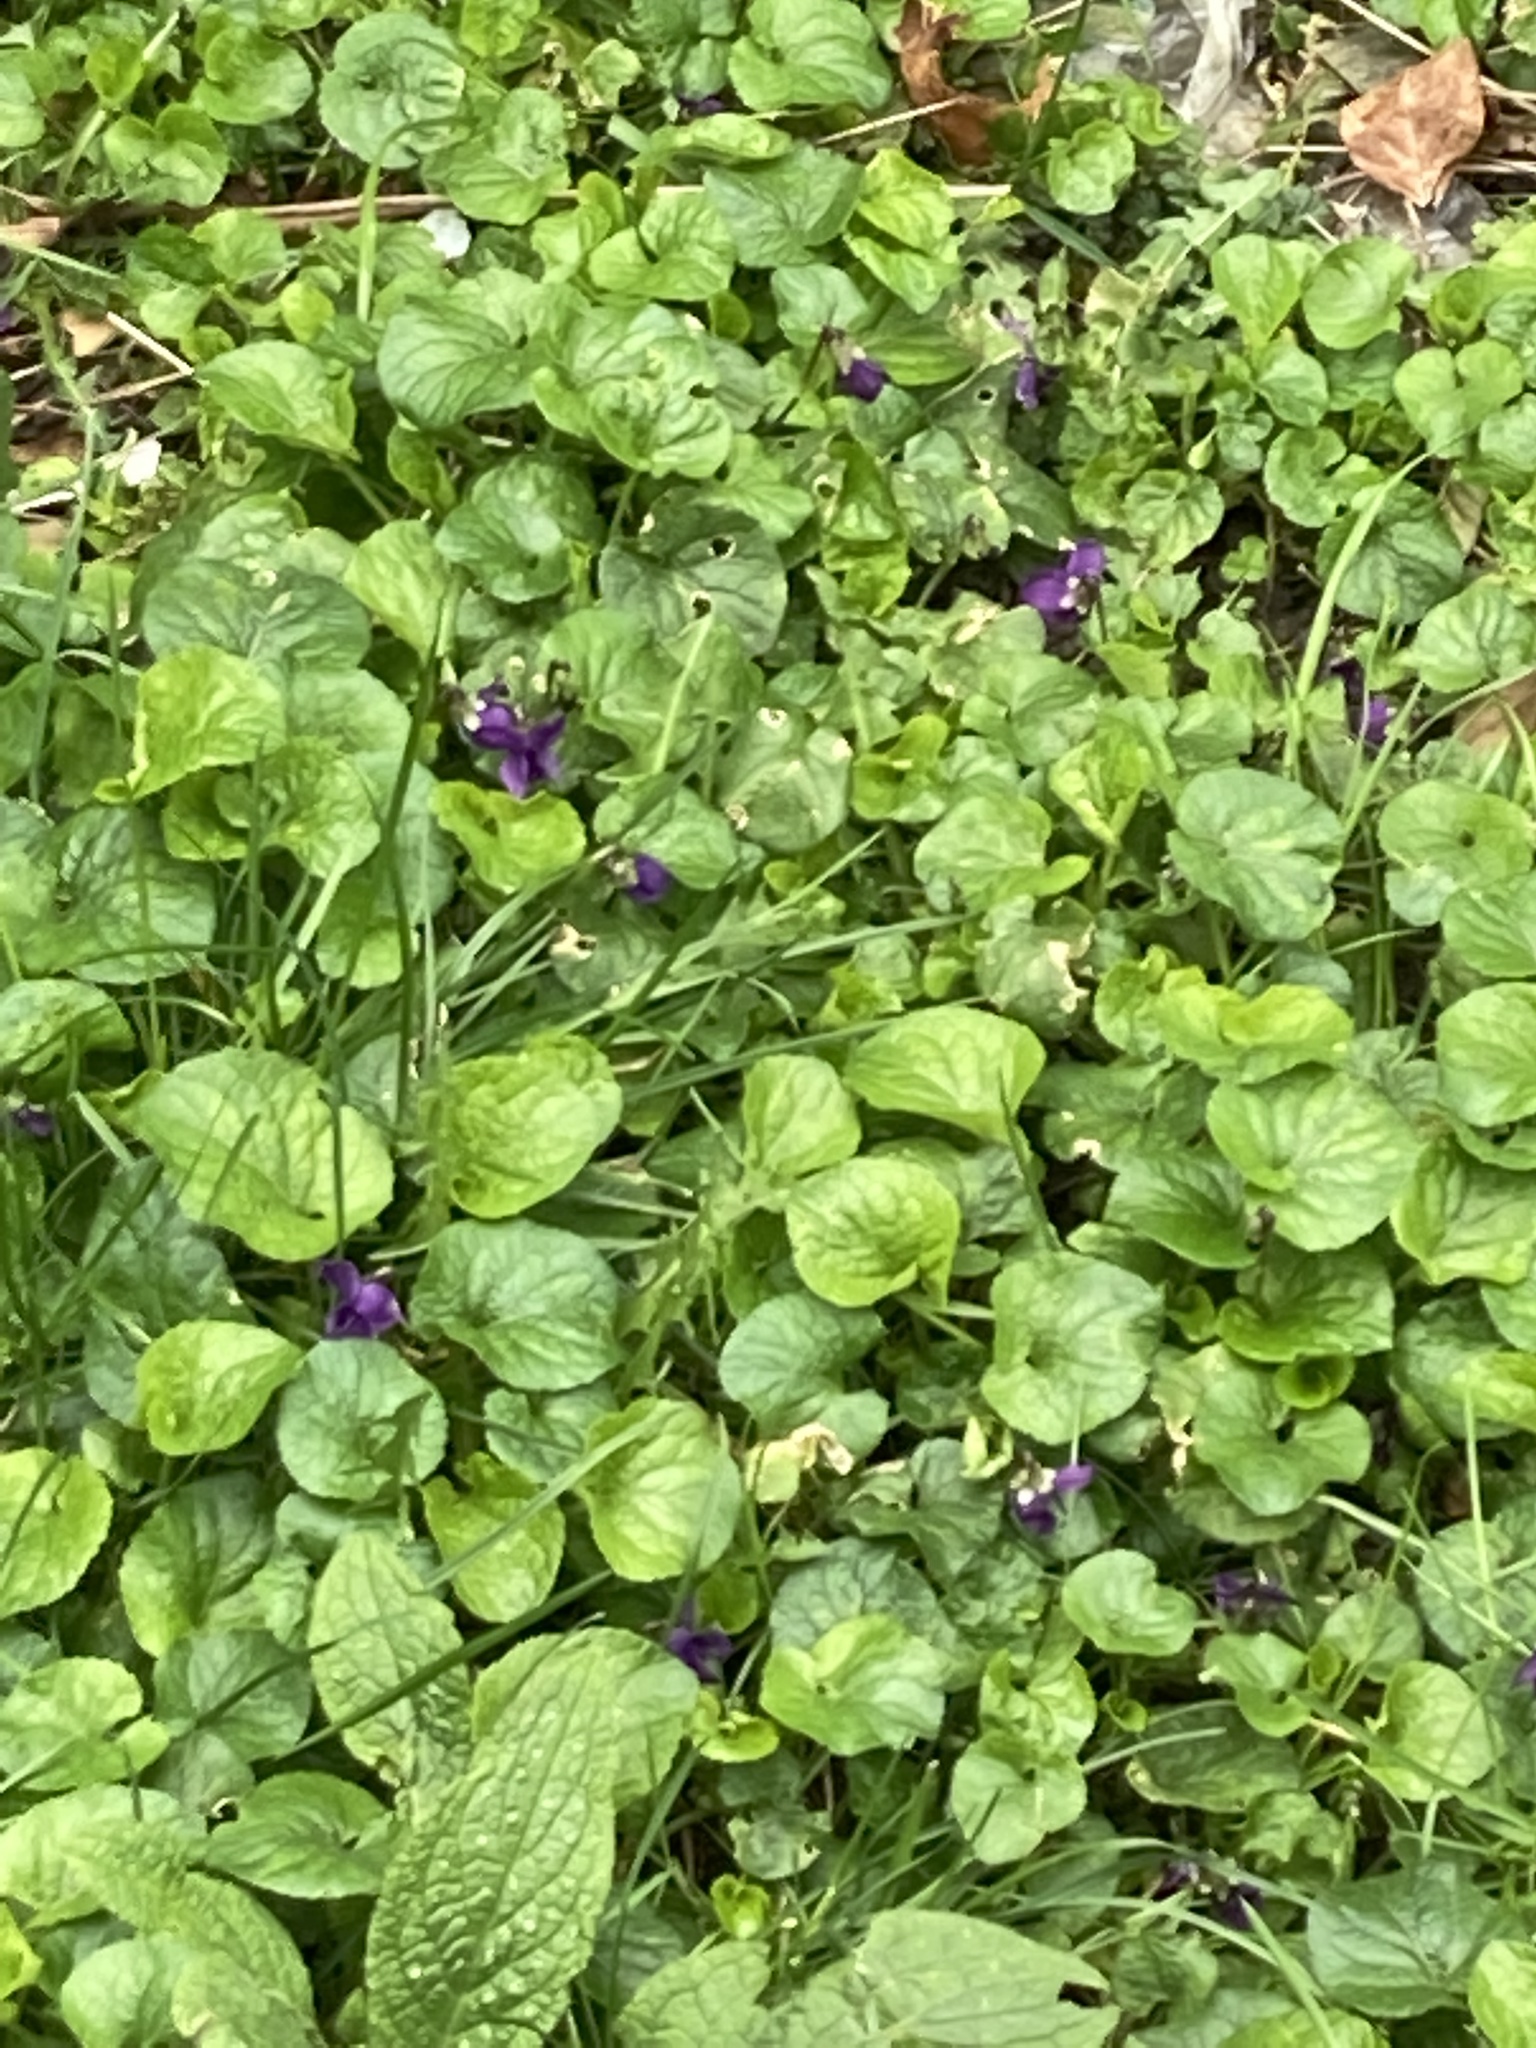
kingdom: Plantae
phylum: Tracheophyta
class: Magnoliopsida
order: Malpighiales
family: Violaceae
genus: Viola
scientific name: Viola odorata
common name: Sweet violet
